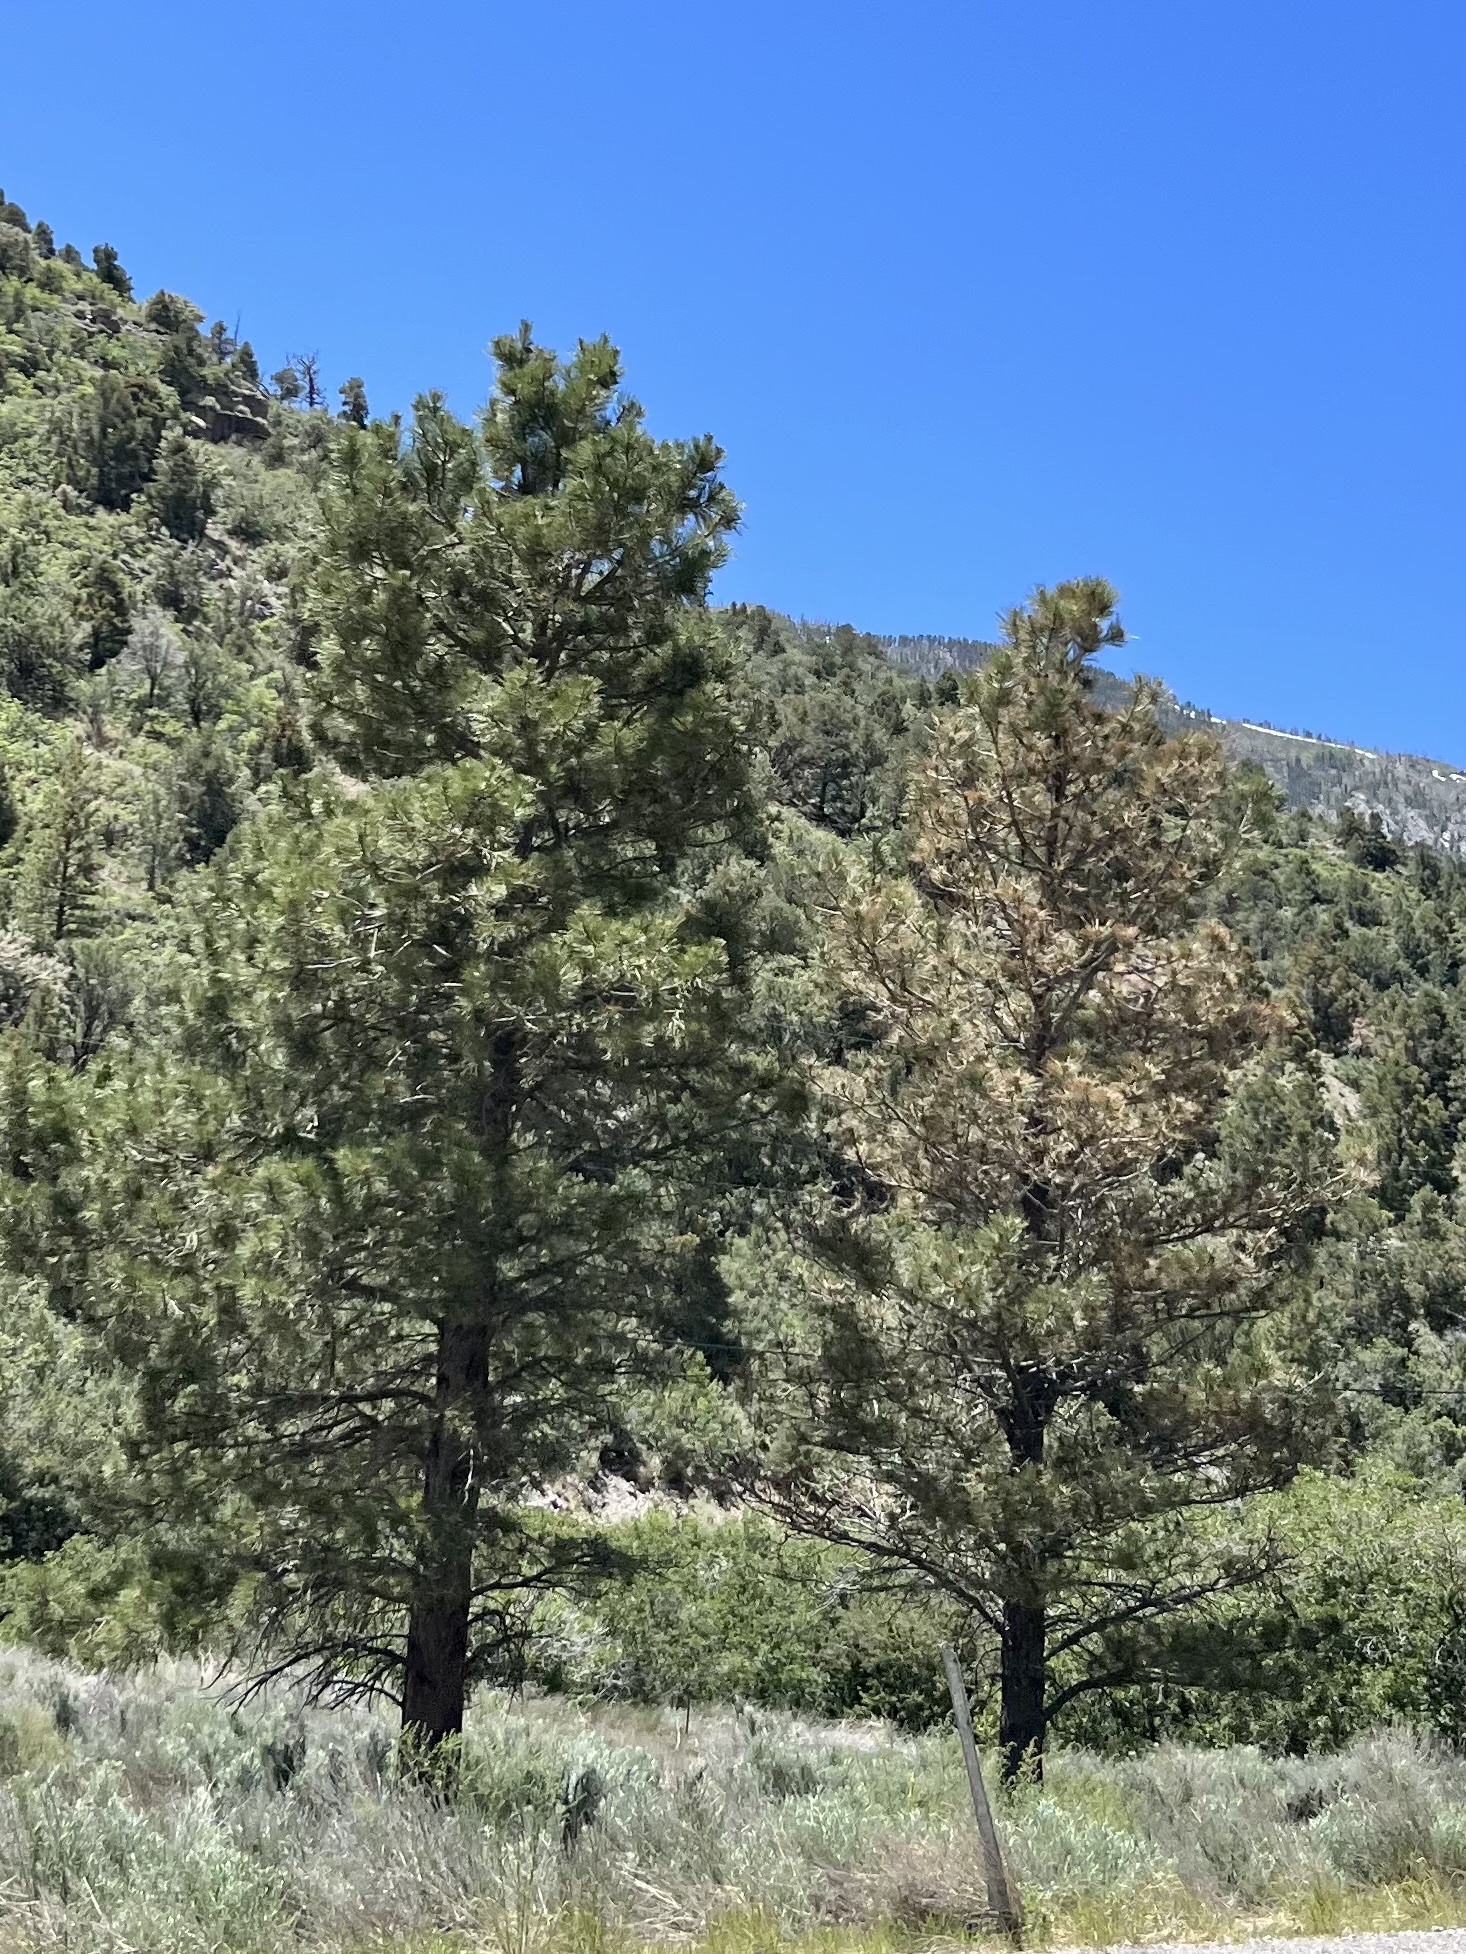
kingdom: Plantae
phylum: Tracheophyta
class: Pinopsida
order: Pinales
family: Pinaceae
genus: Pinus
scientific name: Pinus ponderosa
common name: Western yellow-pine
